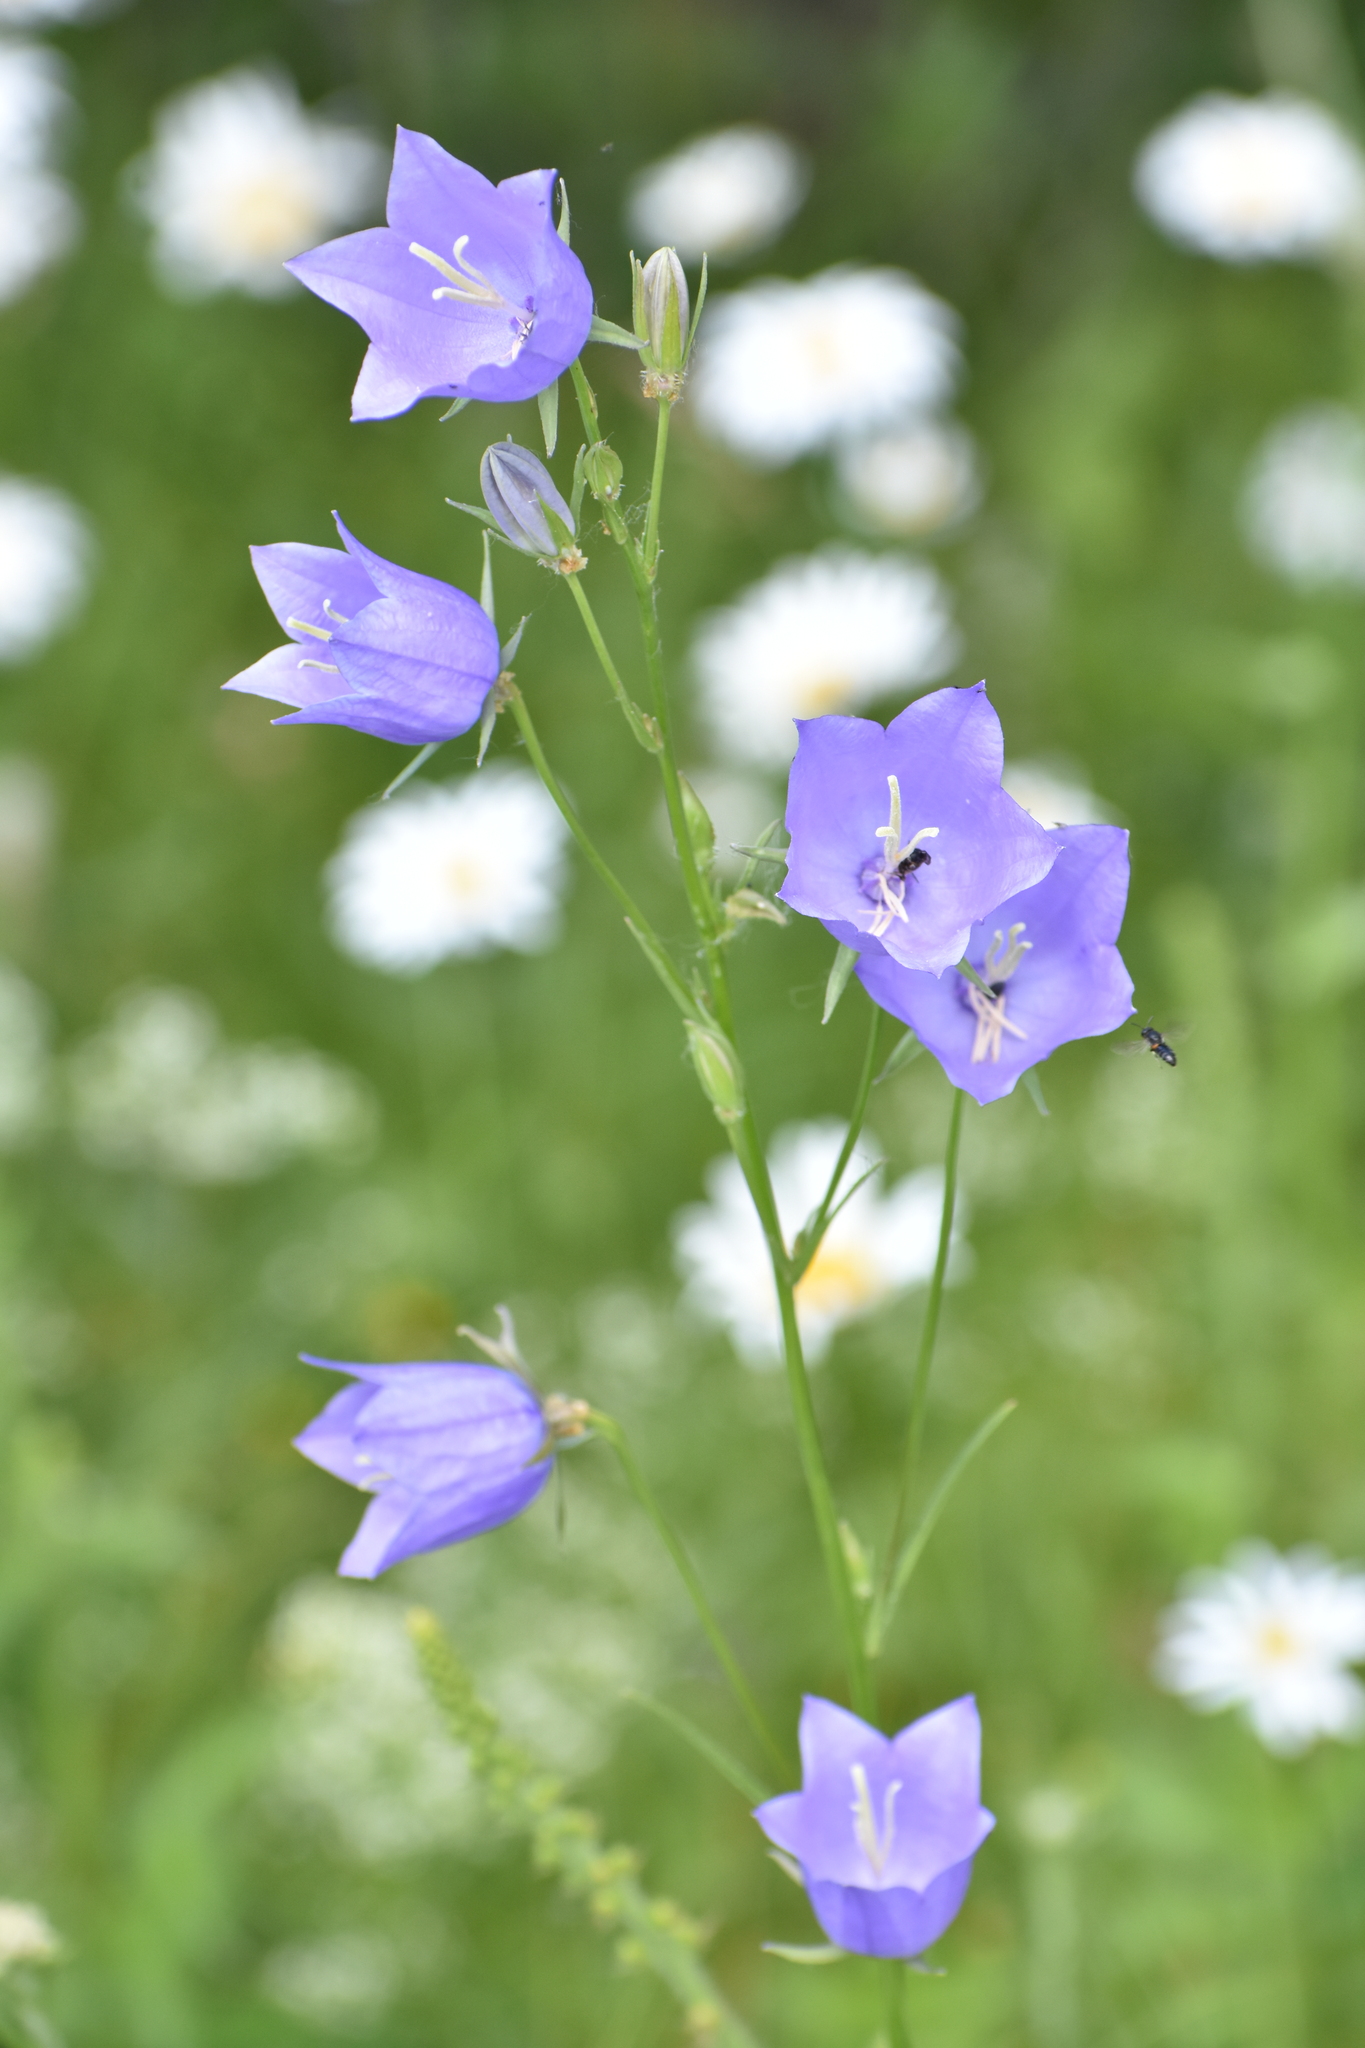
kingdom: Plantae
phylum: Tracheophyta
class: Magnoliopsida
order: Asterales
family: Campanulaceae
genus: Campanula
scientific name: Campanula persicifolia
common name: Peach-leaved bellflower
